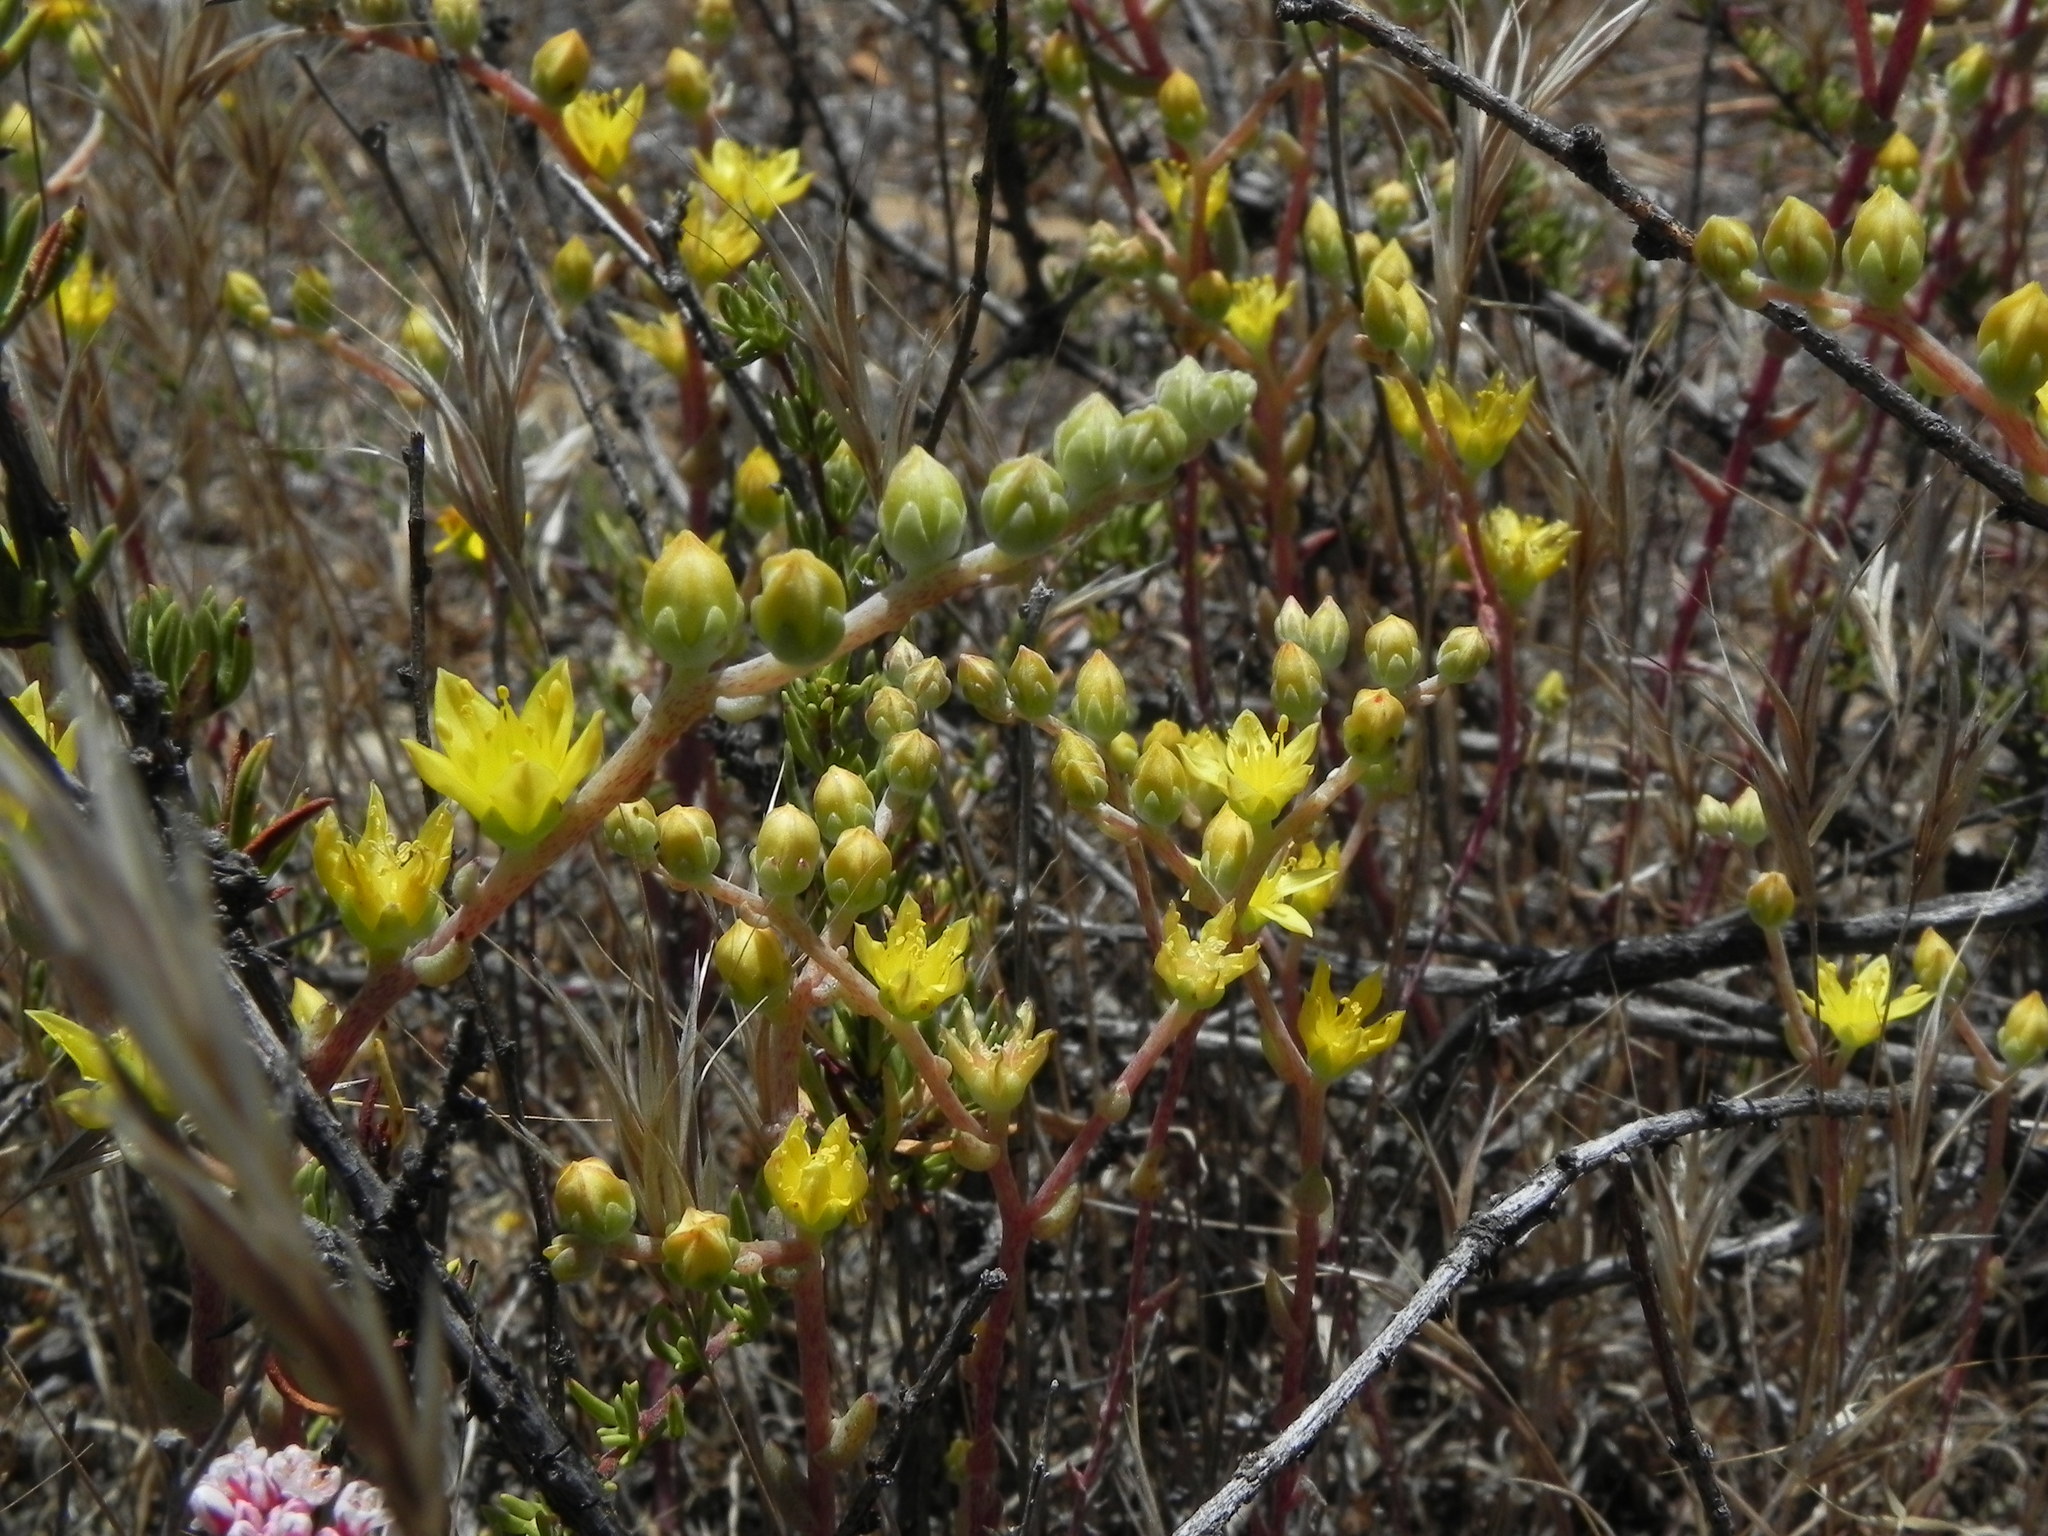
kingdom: Plantae
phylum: Tracheophyta
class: Magnoliopsida
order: Saxifragales
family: Crassulaceae
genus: Dudleya
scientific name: Dudleya variegata
